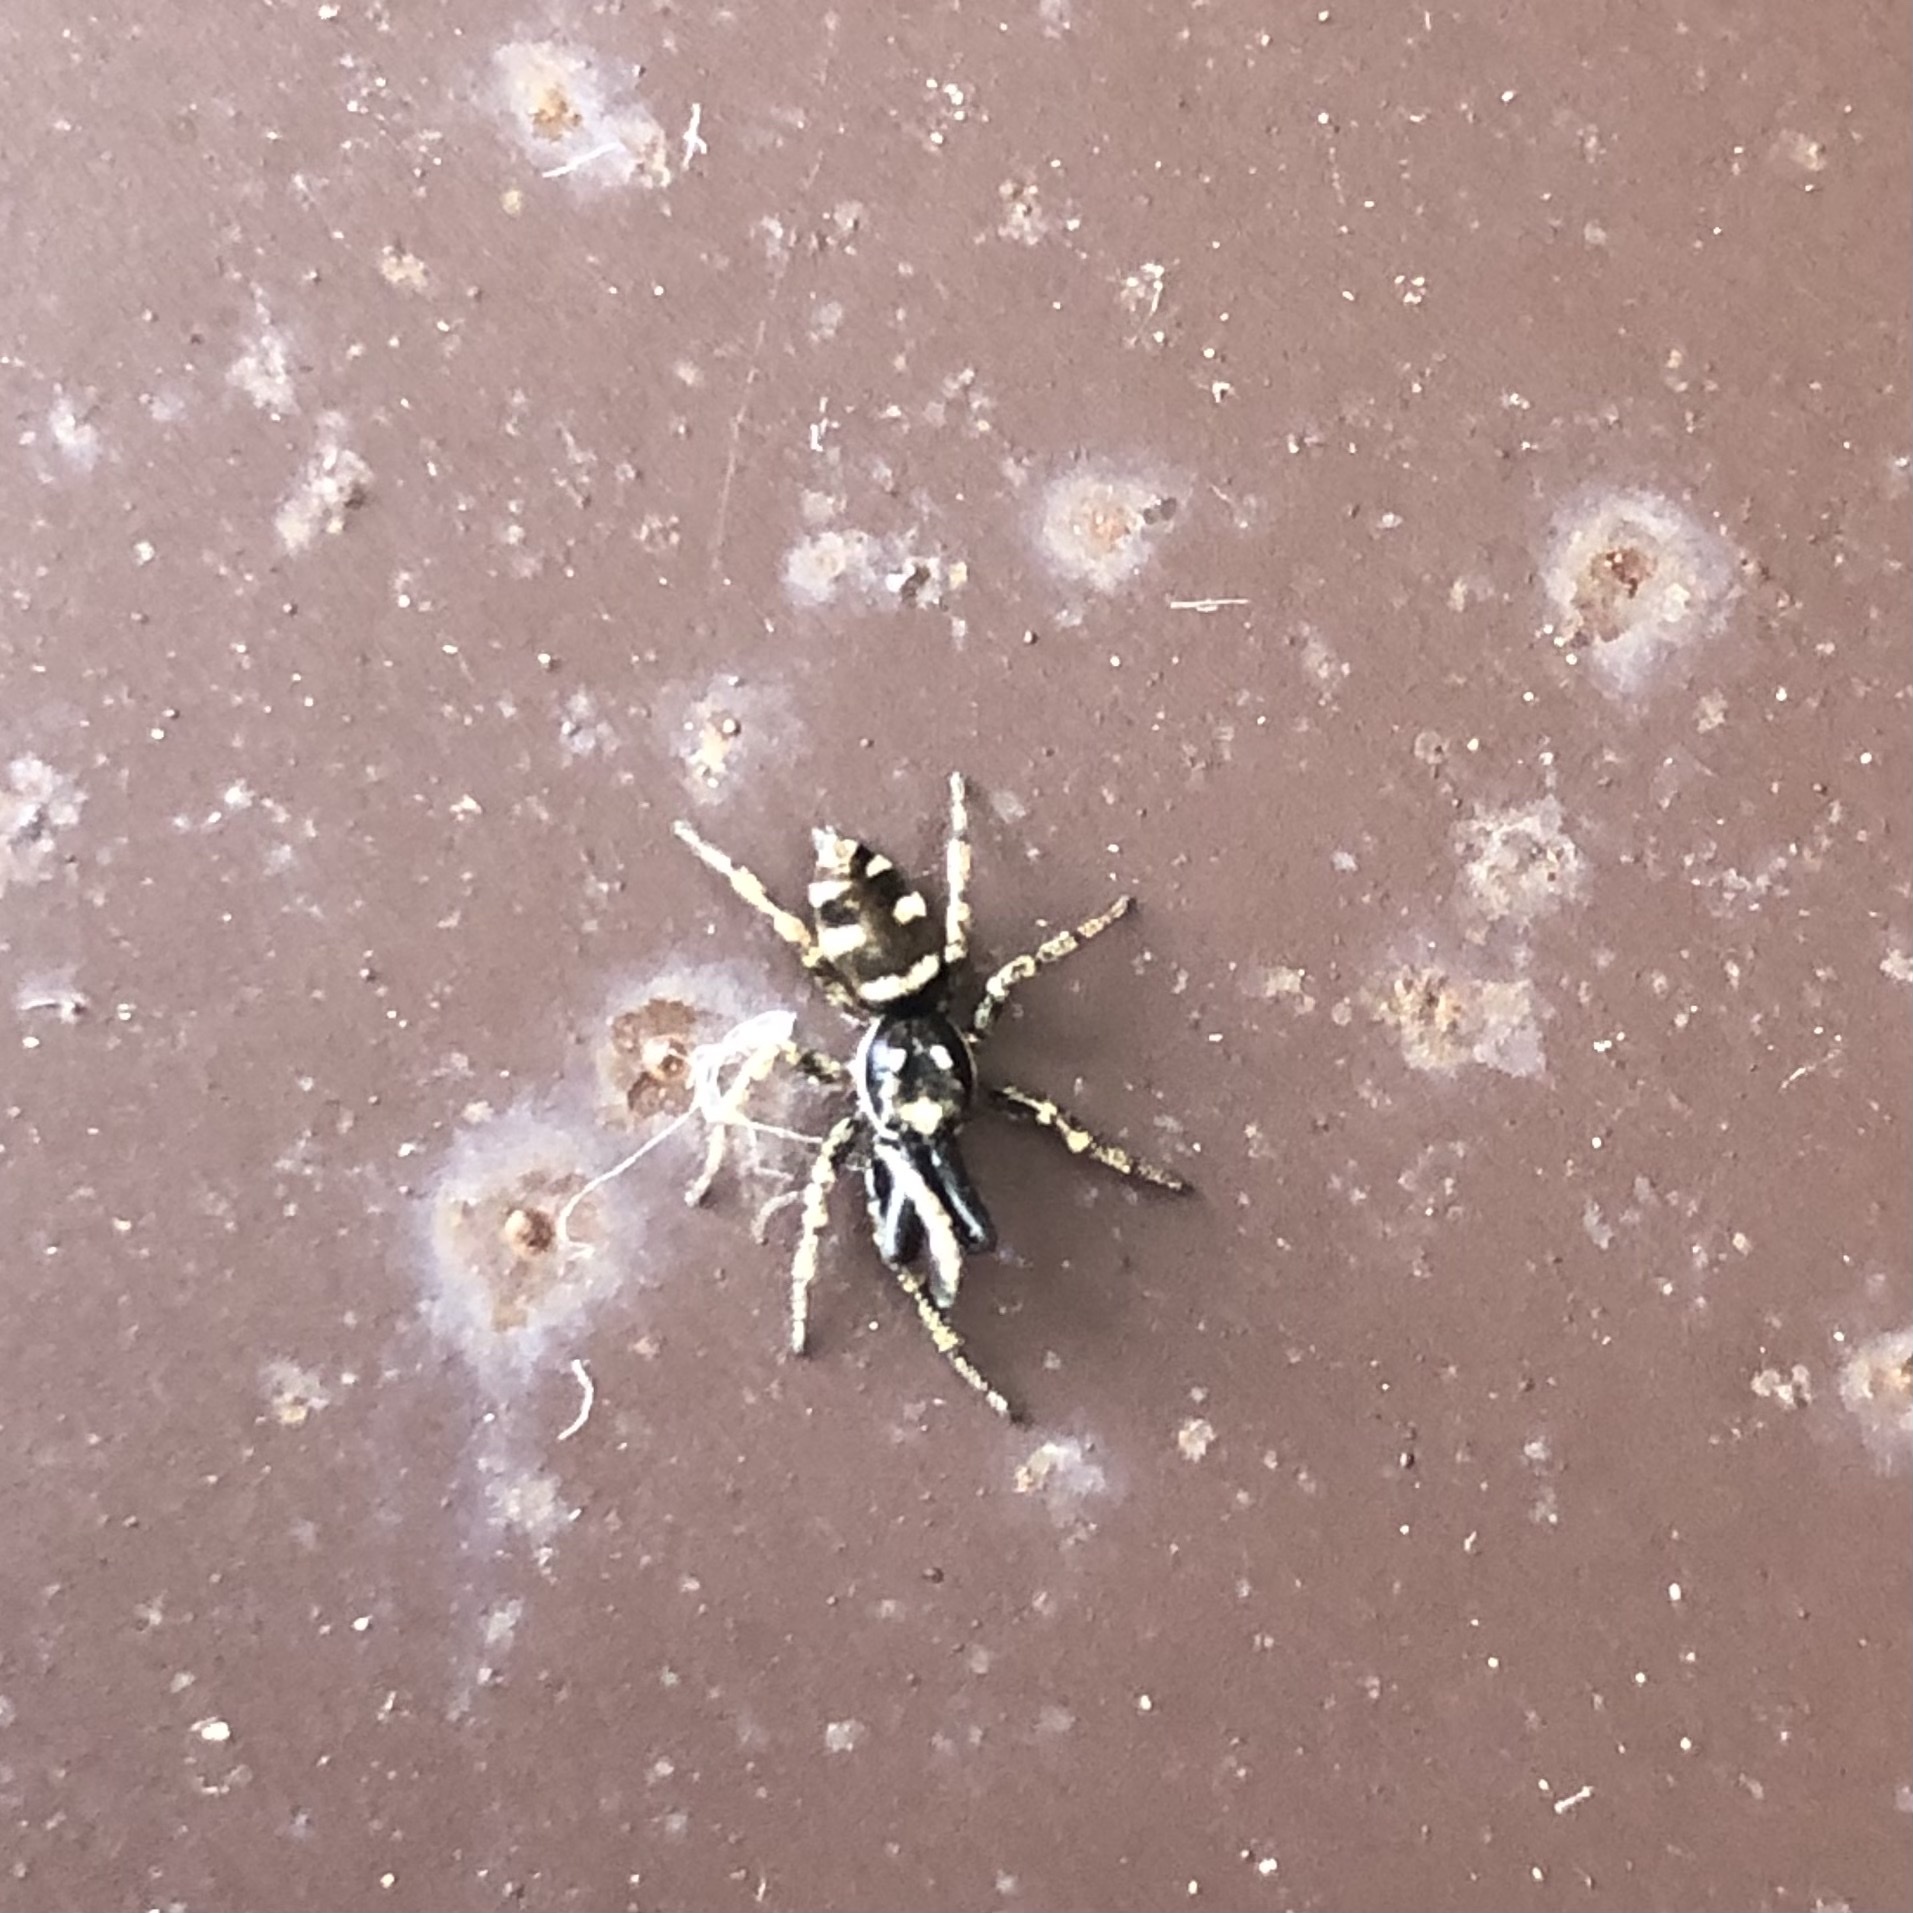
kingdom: Animalia
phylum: Arthropoda
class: Arachnida
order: Araneae
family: Salticidae
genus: Salticus
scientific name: Salticus scenicus
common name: Zebra jumper
